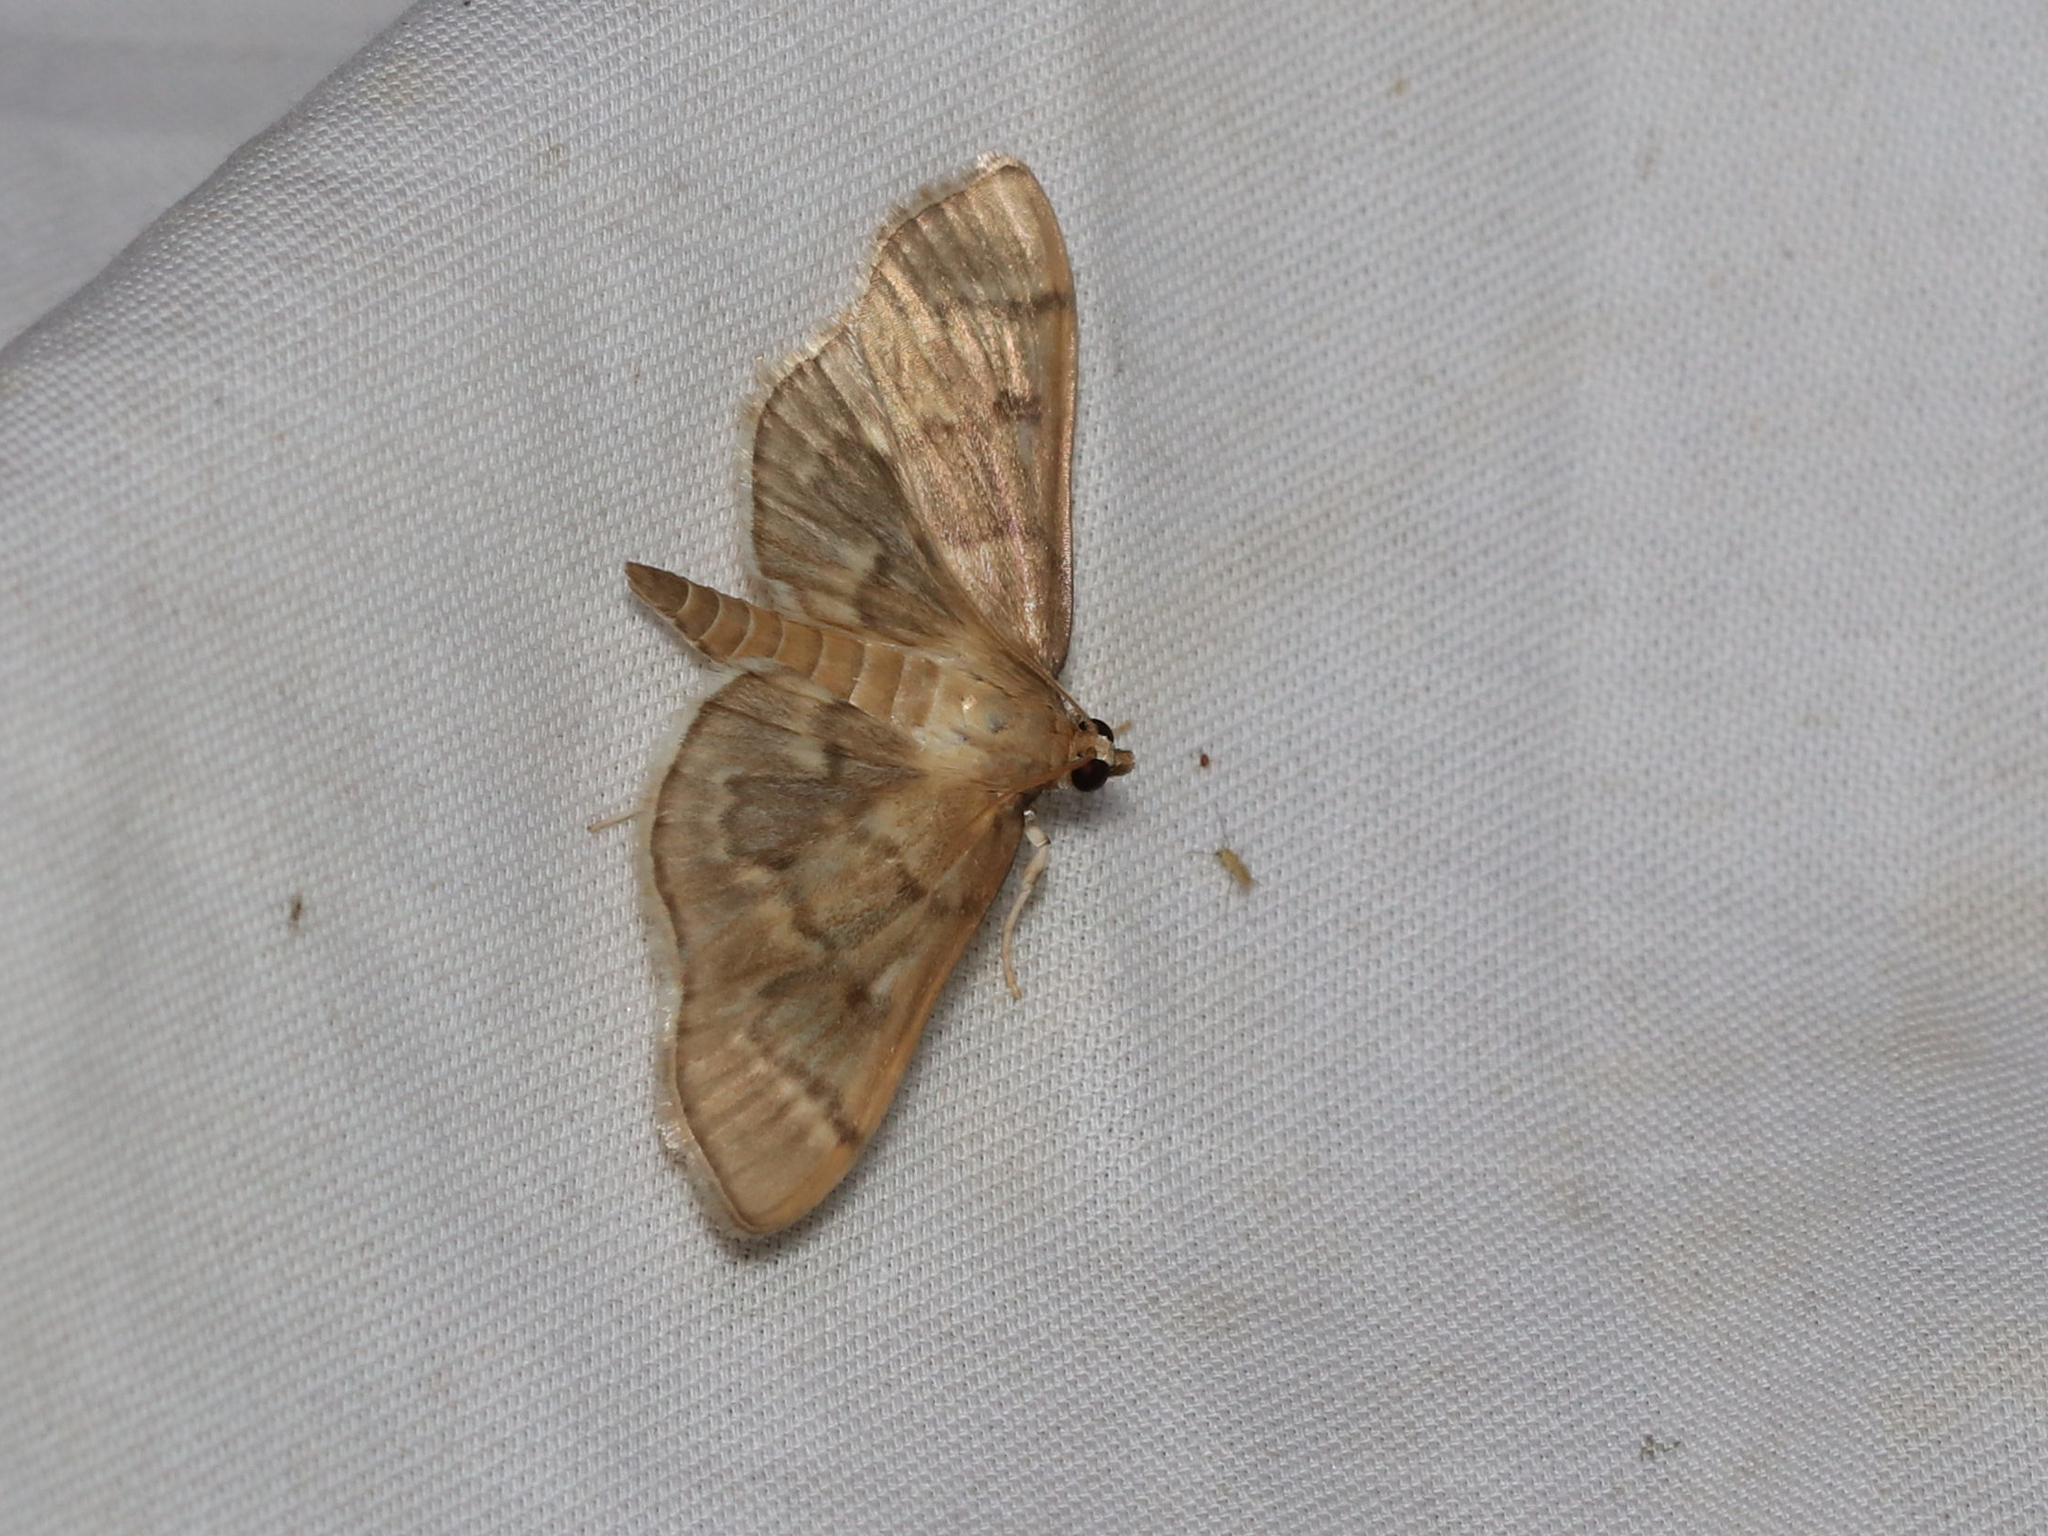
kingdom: Animalia
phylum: Arthropoda
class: Insecta
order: Lepidoptera
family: Crambidae
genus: Herpetogramma
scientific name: Herpetogramma aeglealis
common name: Serpentine webworm moth
